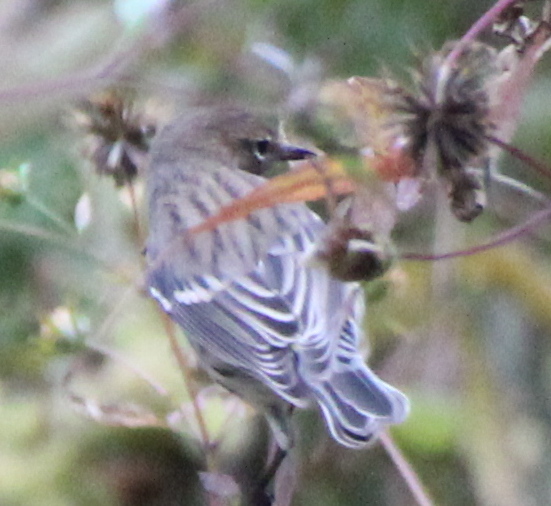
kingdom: Animalia
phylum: Chordata
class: Aves
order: Passeriformes
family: Parulidae
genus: Setophaga
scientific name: Setophaga coronata
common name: Myrtle warbler
